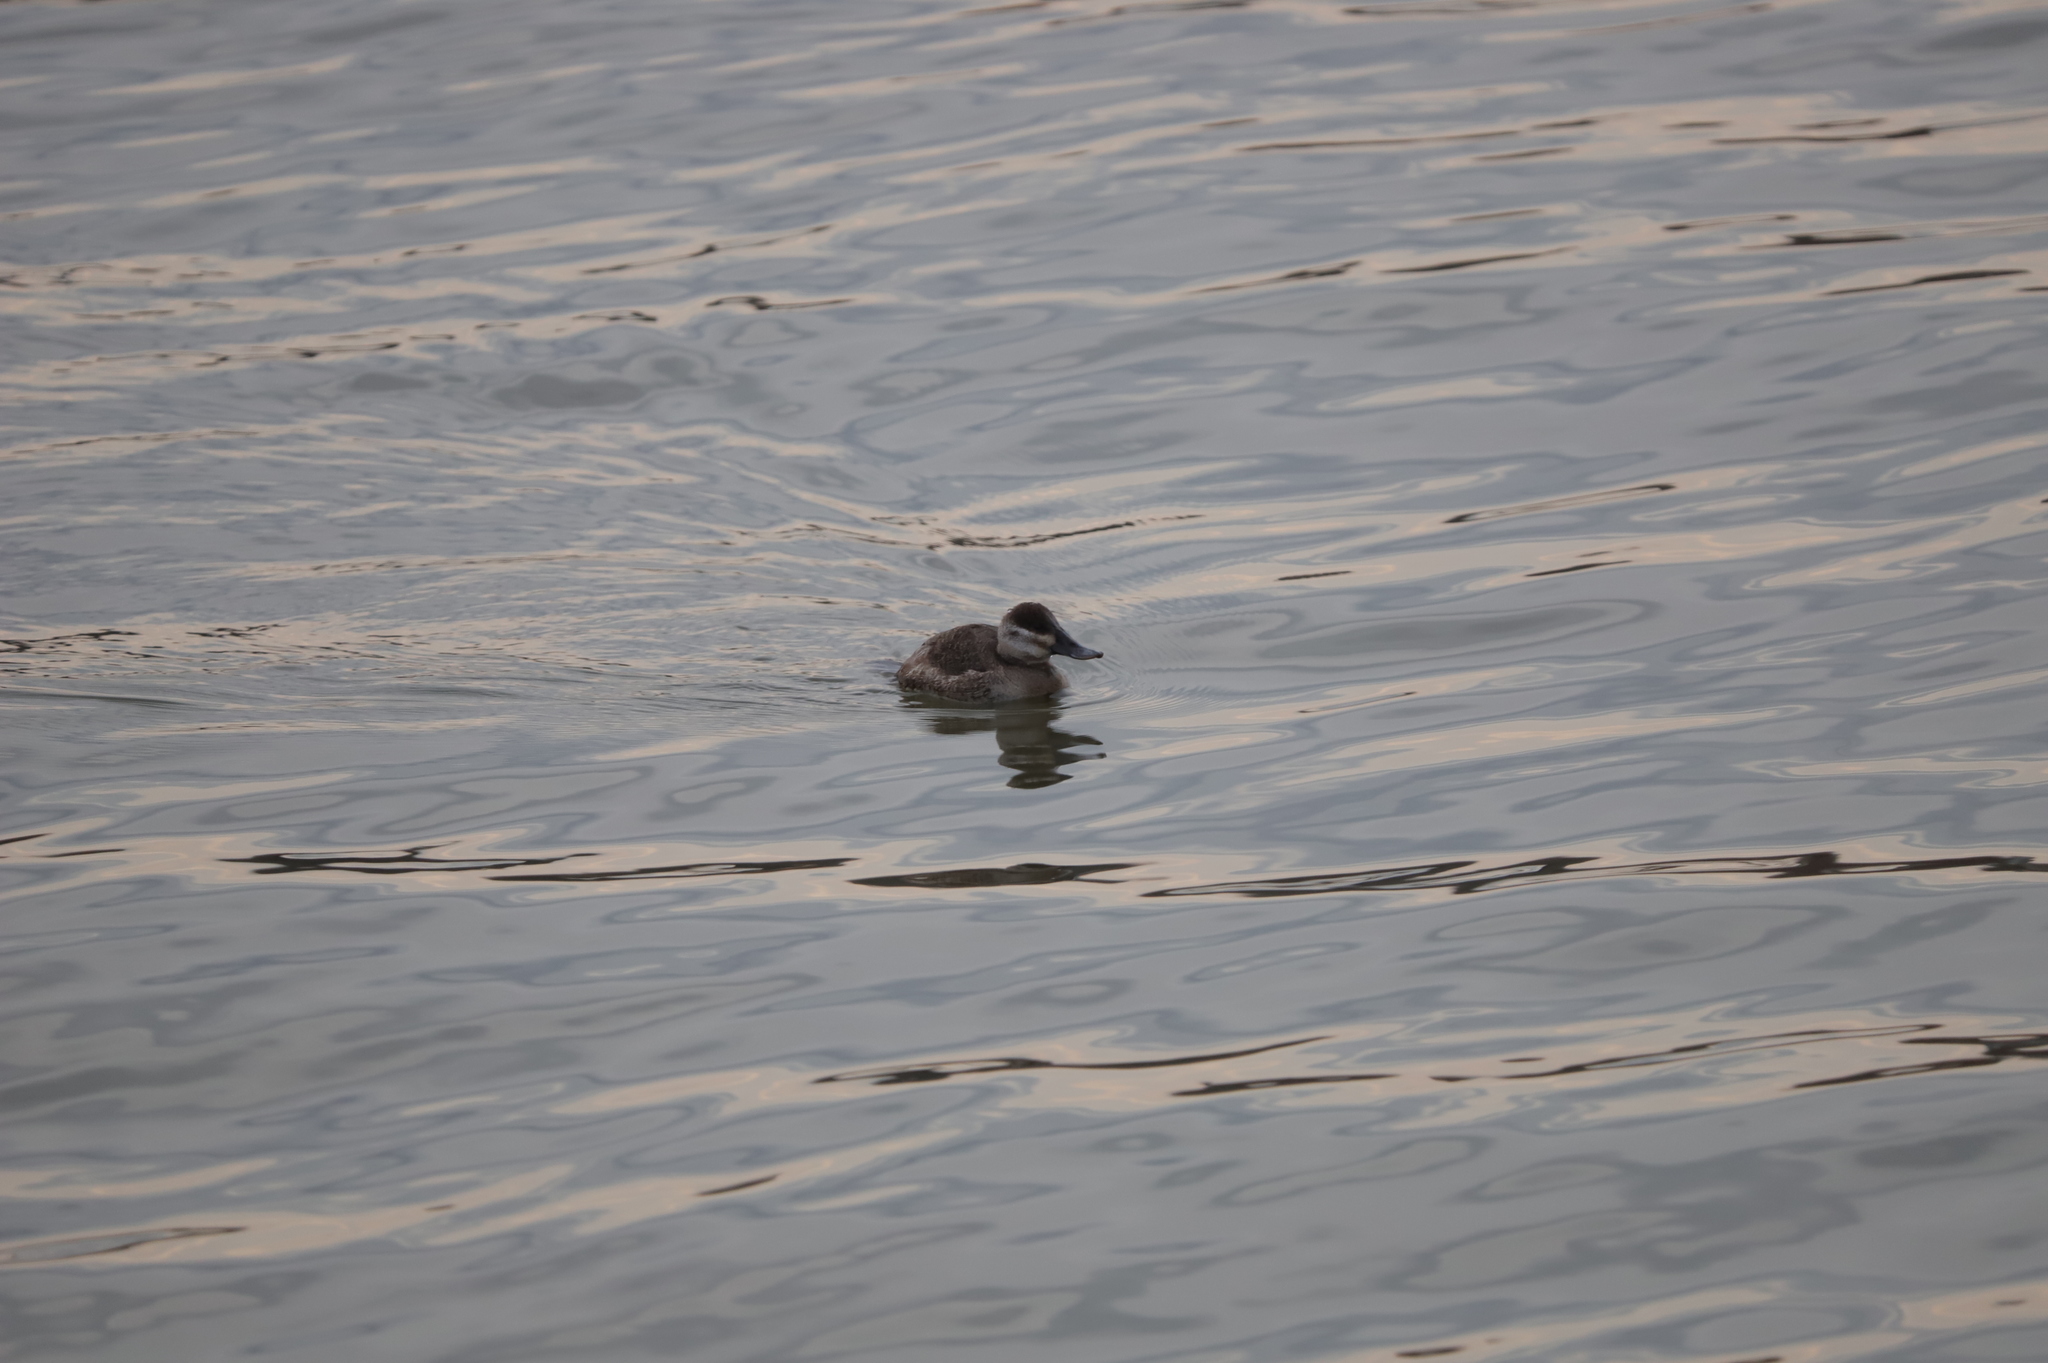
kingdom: Animalia
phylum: Chordata
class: Aves
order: Anseriformes
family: Anatidae
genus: Oxyura
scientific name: Oxyura jamaicensis
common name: Ruddy duck
